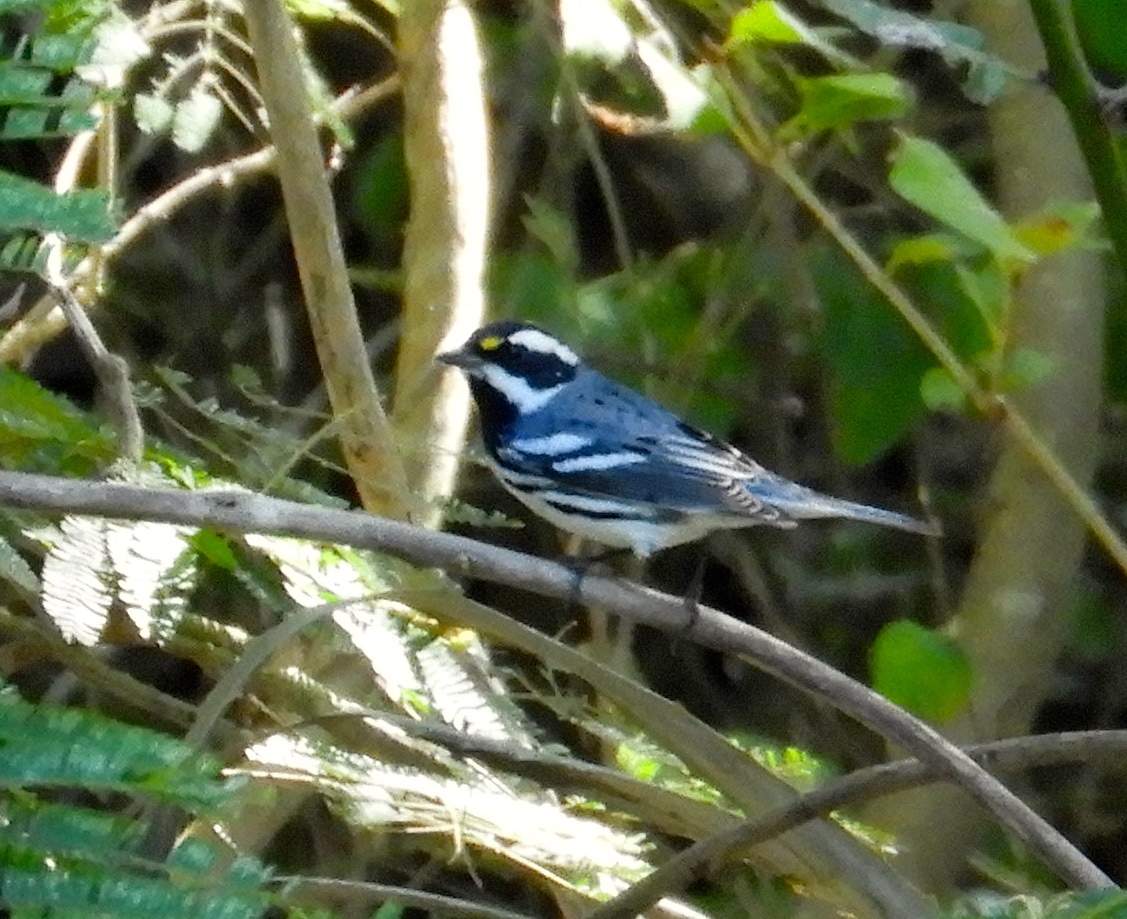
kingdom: Animalia
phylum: Chordata
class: Aves
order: Passeriformes
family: Parulidae
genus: Setophaga
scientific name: Setophaga nigrescens
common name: Black-throated gray warbler
